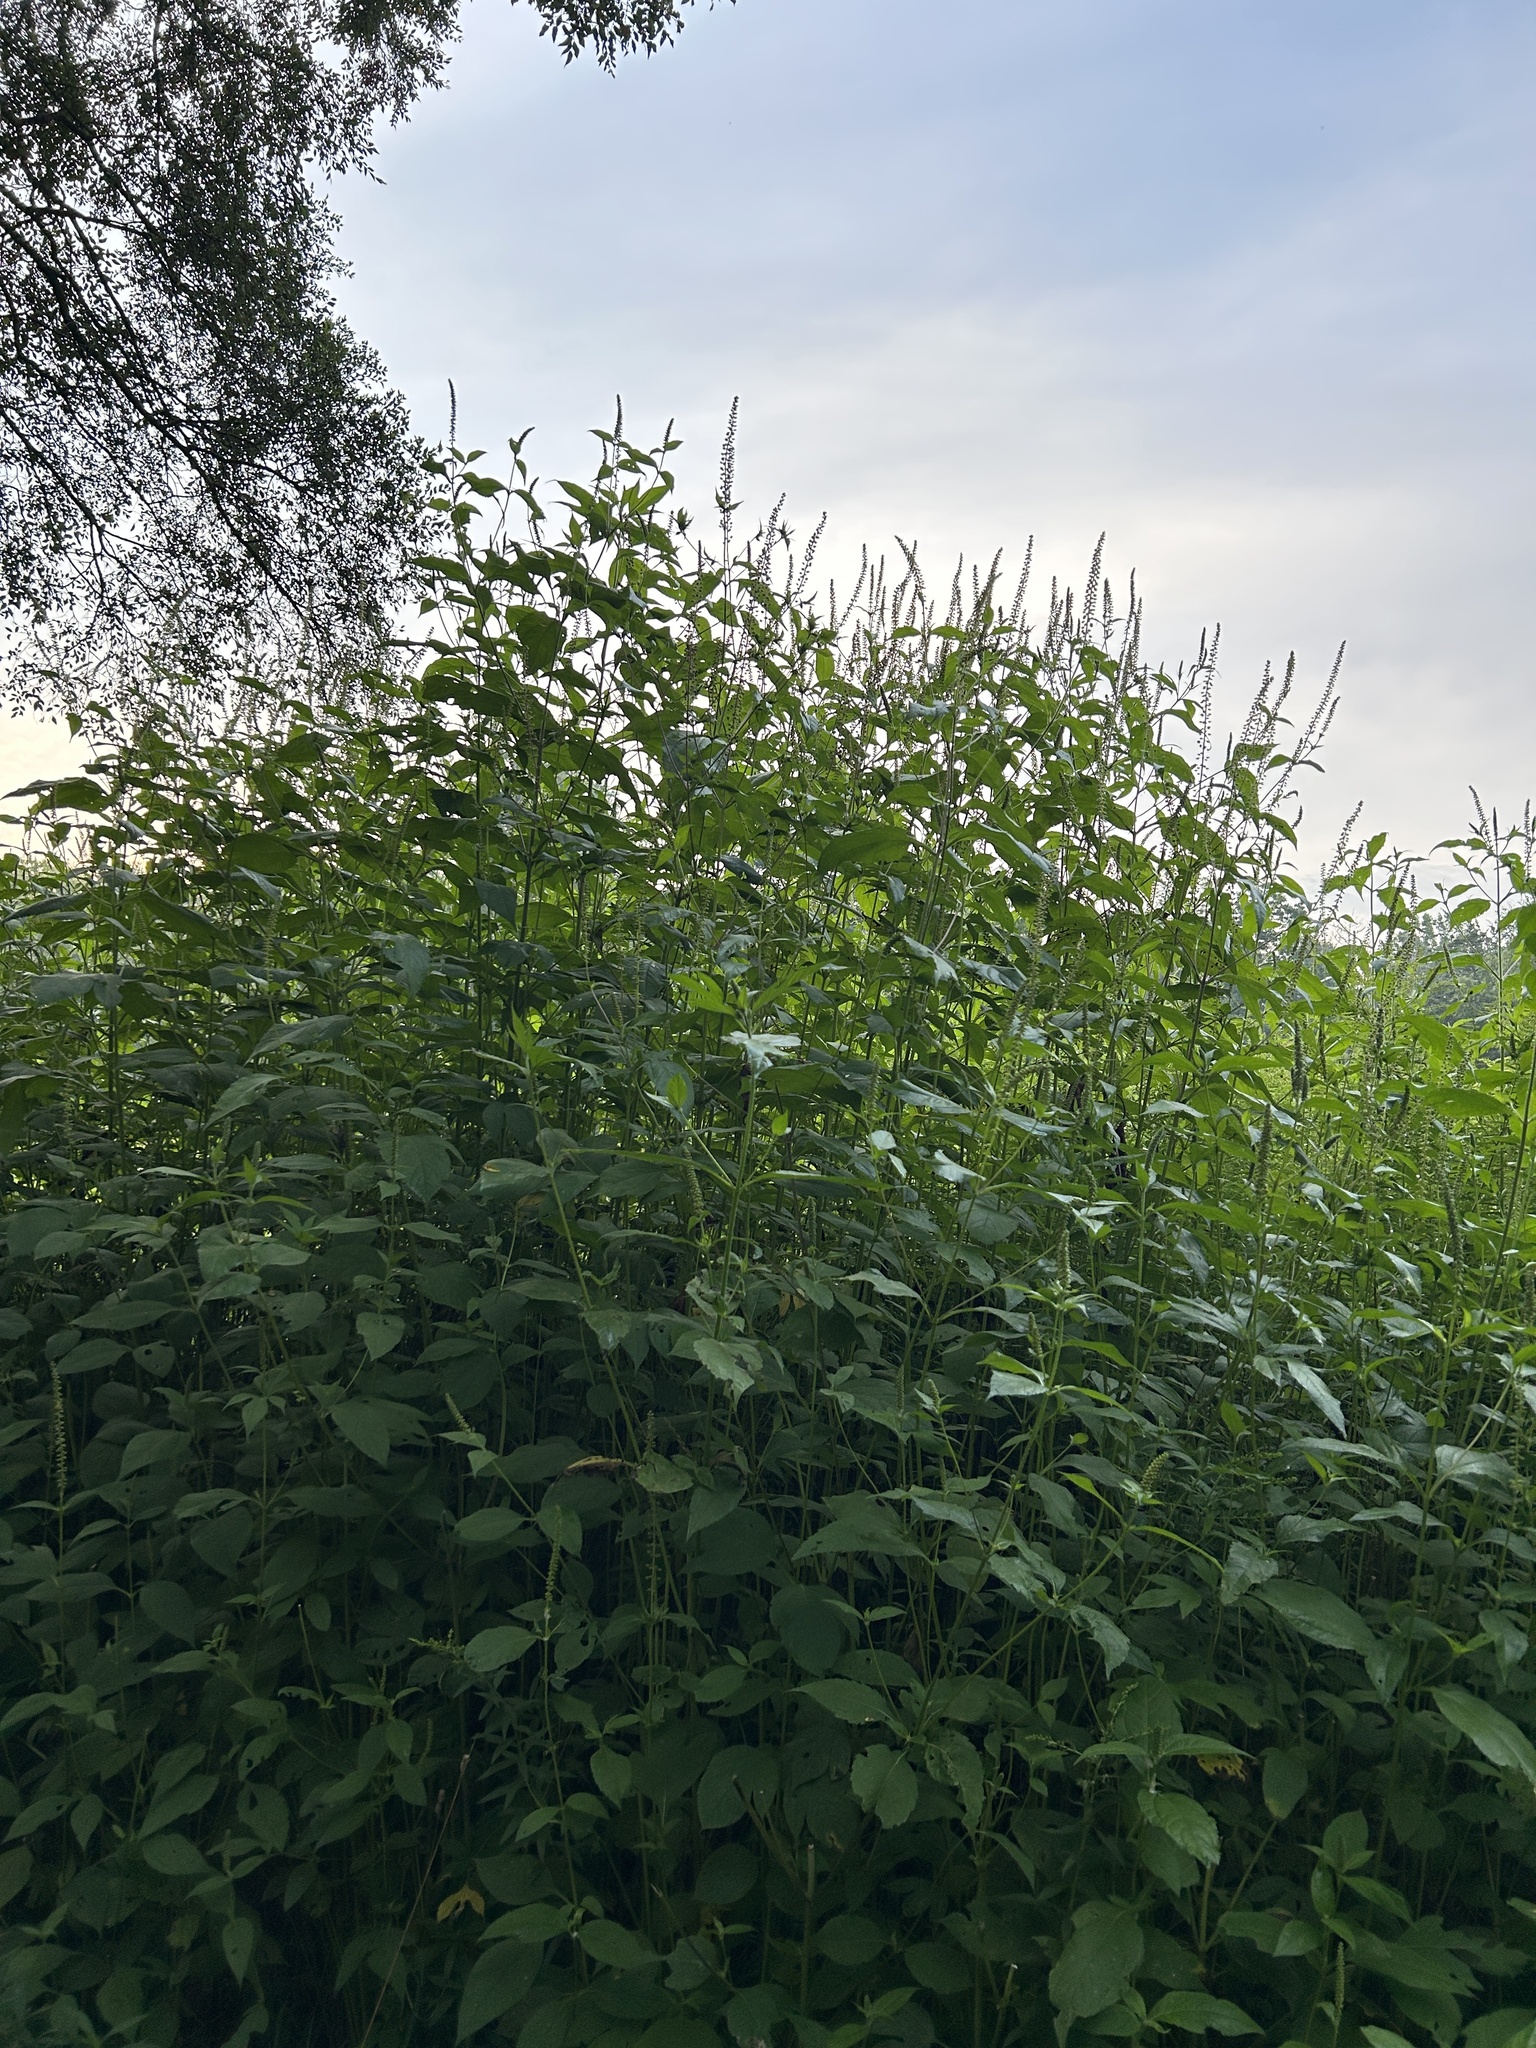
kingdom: Plantae
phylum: Tracheophyta
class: Magnoliopsida
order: Asterales
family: Asteraceae
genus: Ambrosia
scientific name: Ambrosia trifida
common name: Giant ragweed
